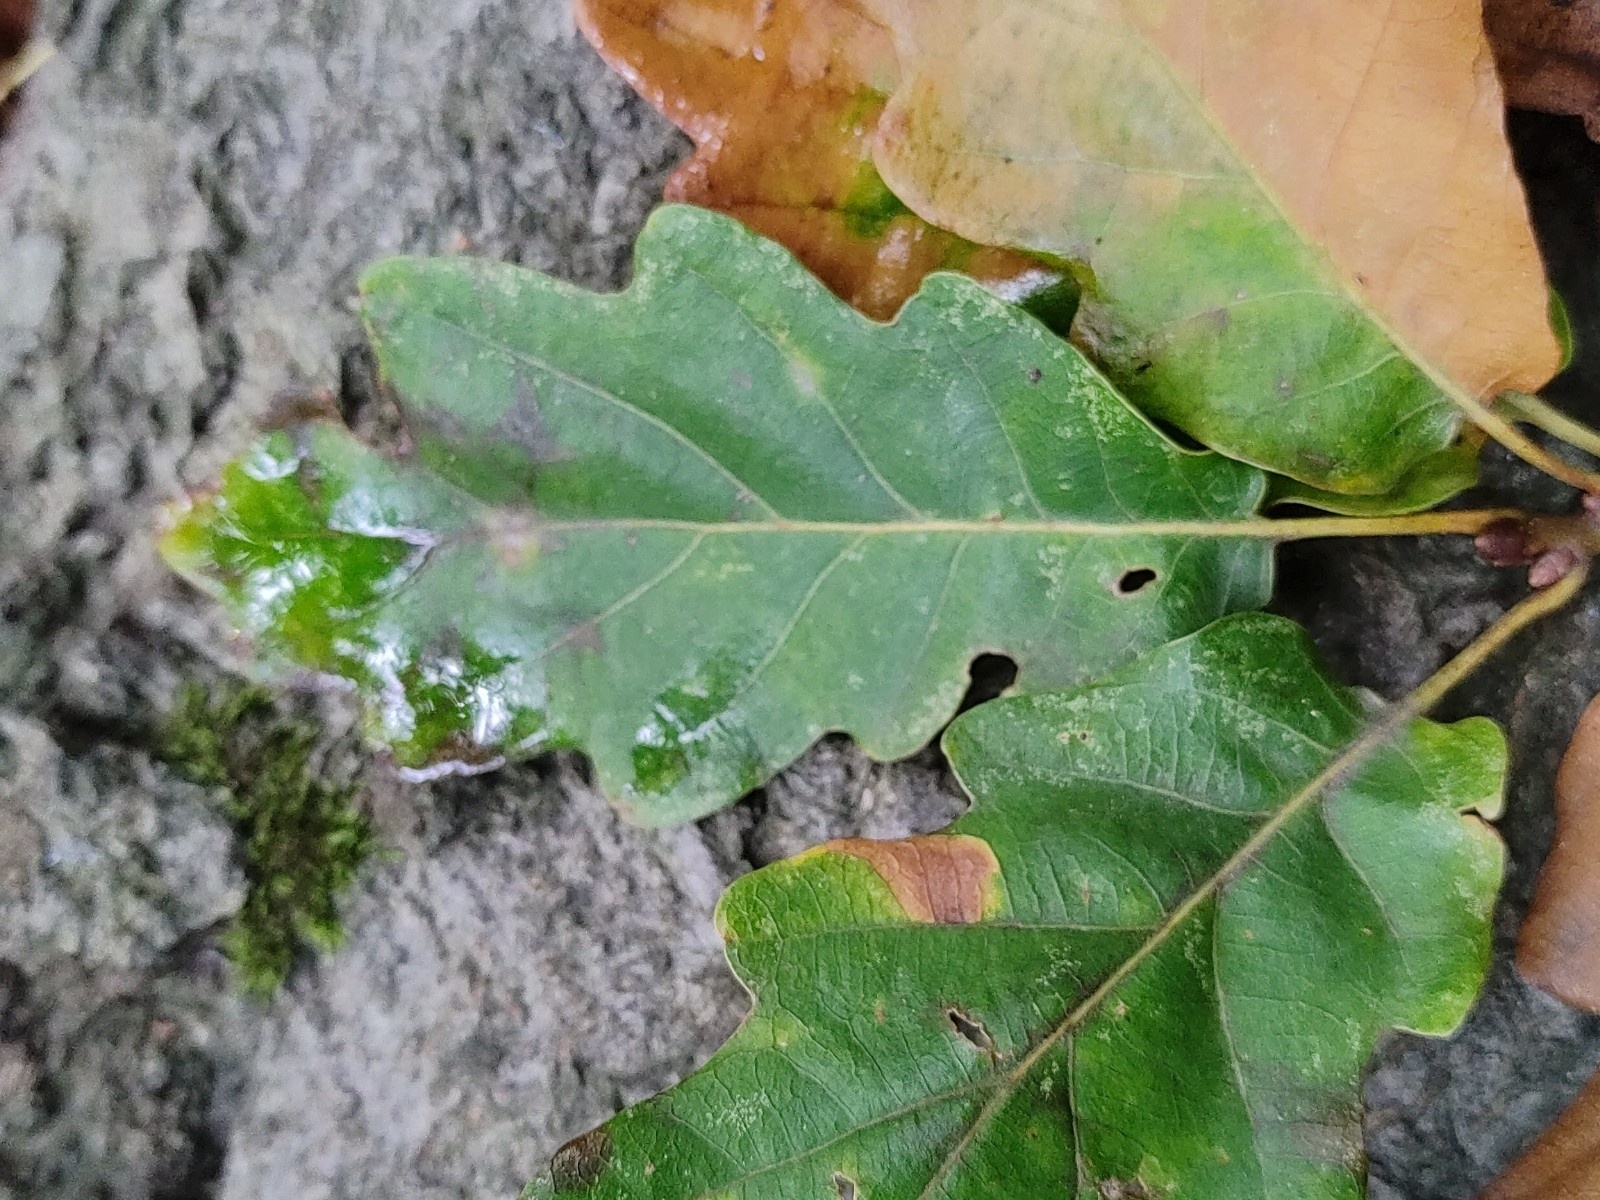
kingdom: Plantae
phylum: Tracheophyta
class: Magnoliopsida
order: Fagales
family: Fagaceae
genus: Quercus
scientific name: Quercus petraea
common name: Sessile oak
